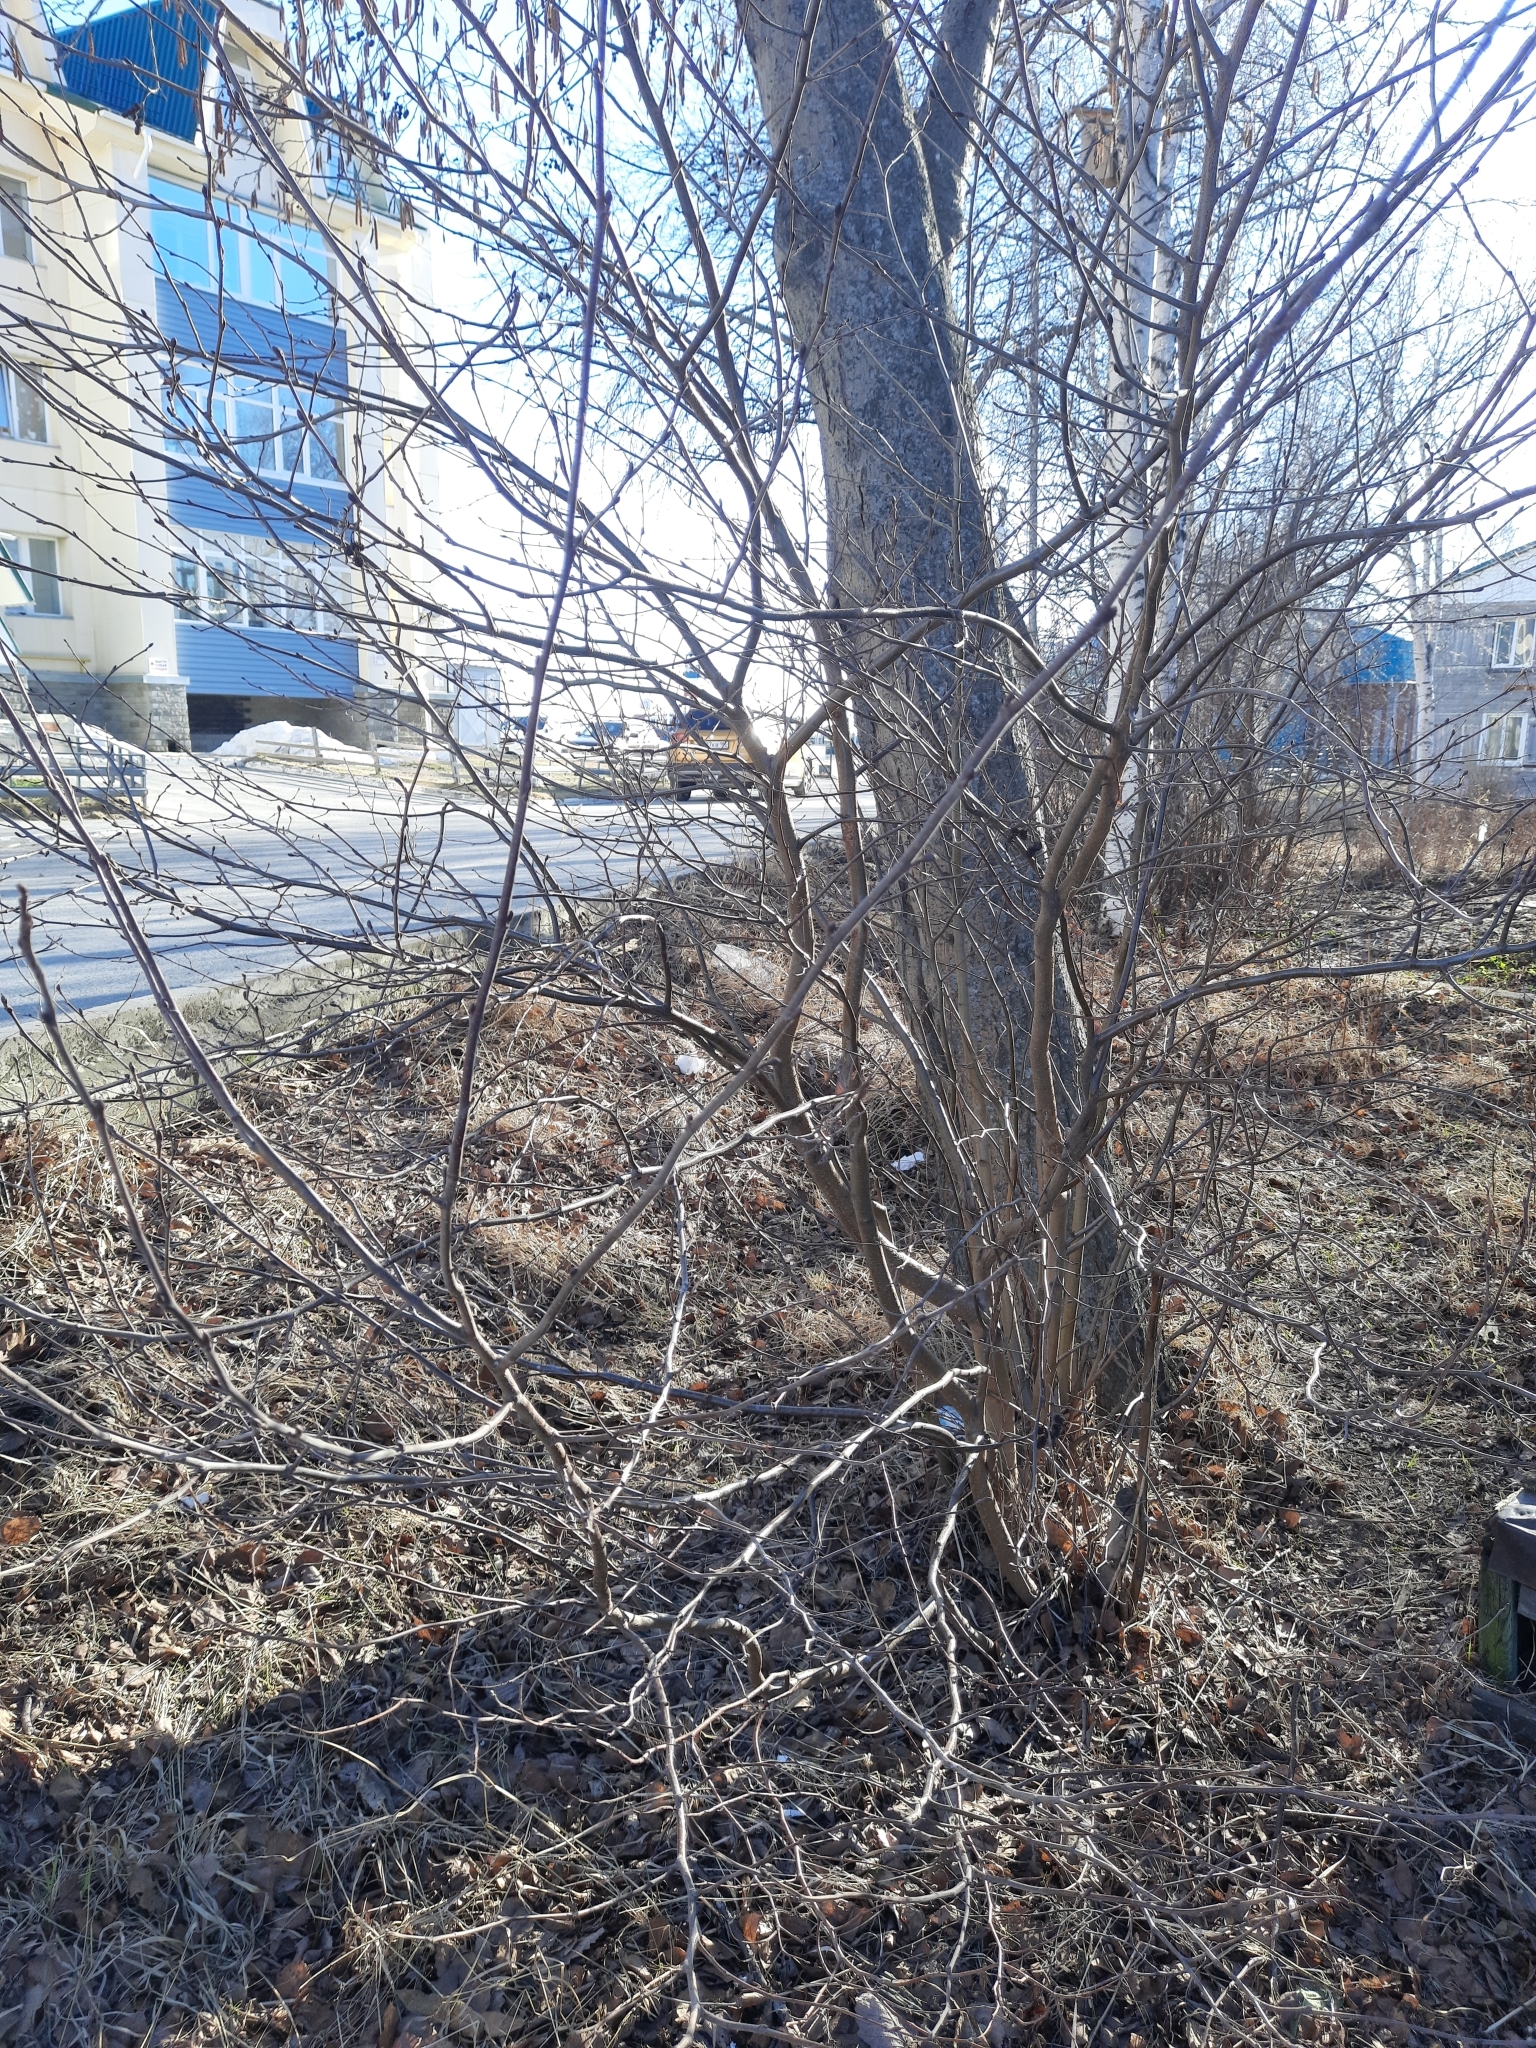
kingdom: Plantae
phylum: Tracheophyta
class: Magnoliopsida
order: Fagales
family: Betulaceae
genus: Alnus
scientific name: Alnus incana
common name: Grey alder
